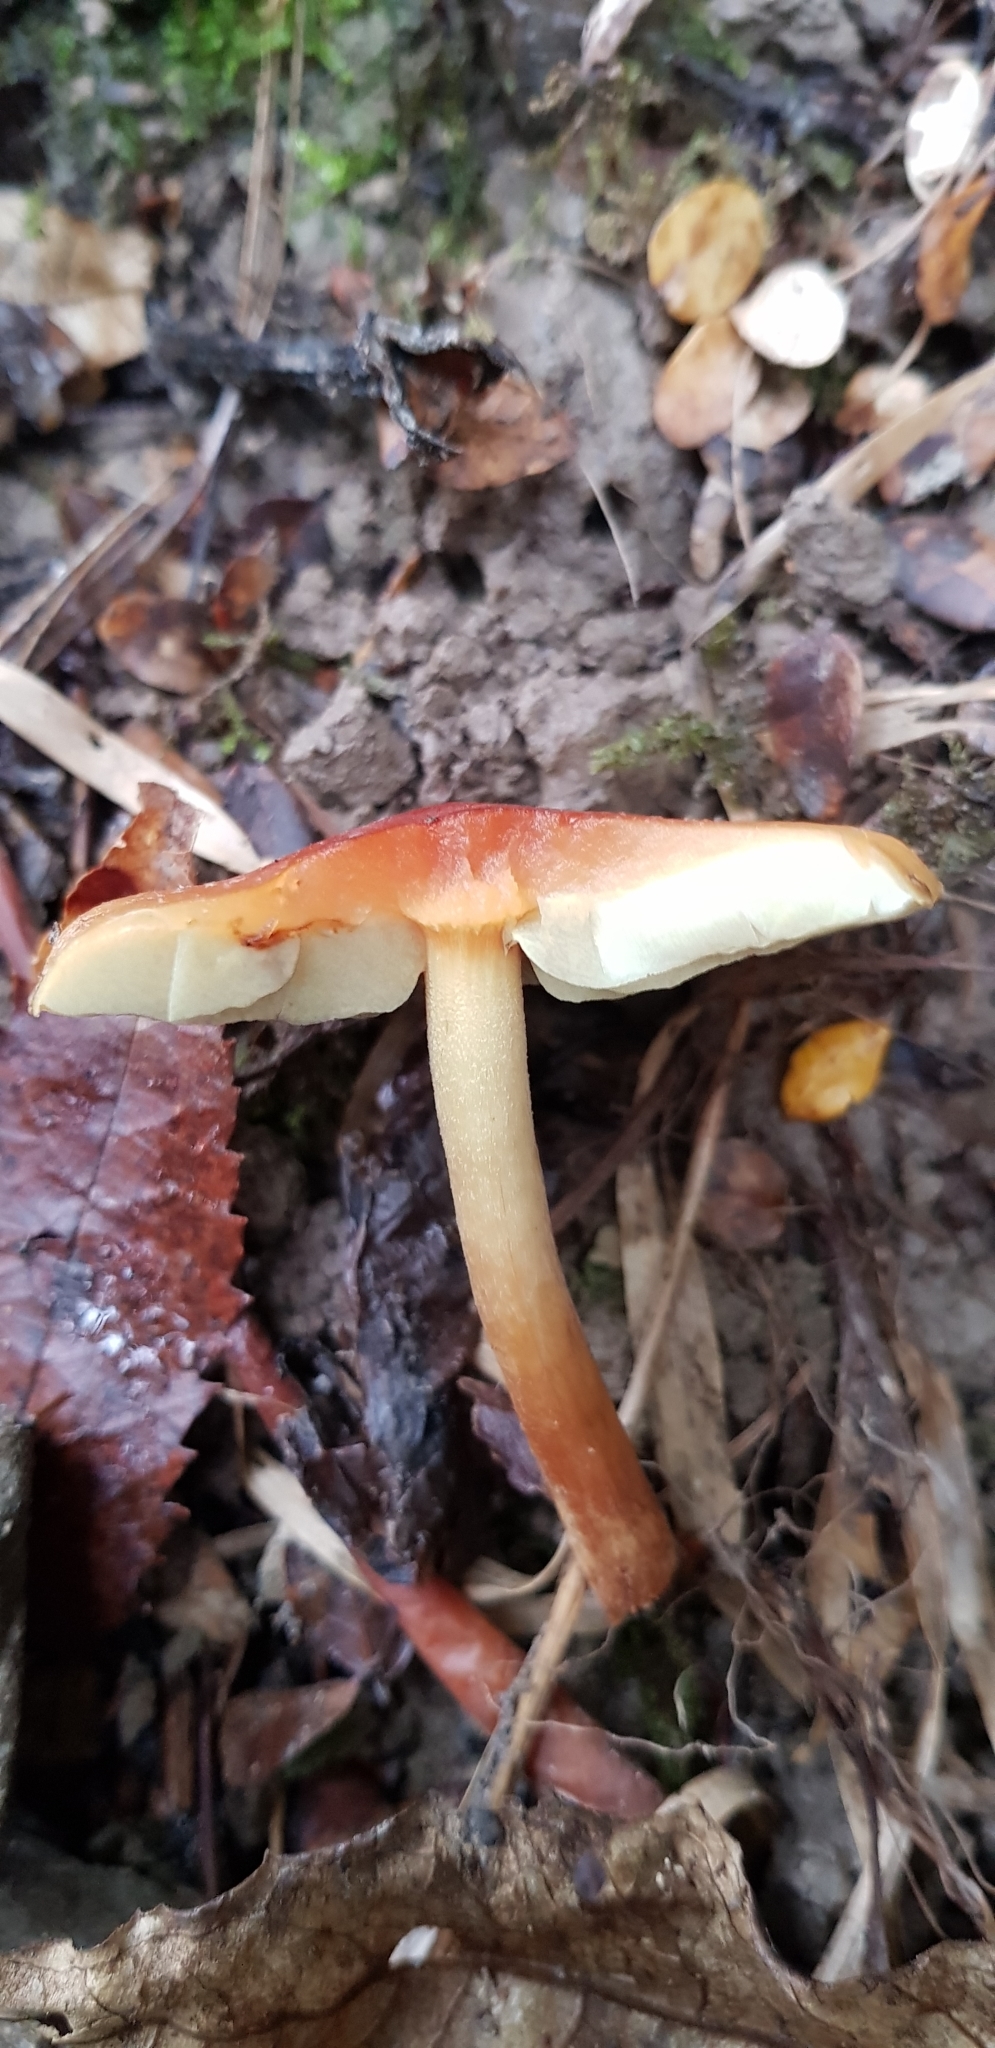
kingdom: Fungi
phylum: Basidiomycota
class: Agaricomycetes
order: Agaricales
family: Strophariaceae
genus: Hypholoma
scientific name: Hypholoma australianum
